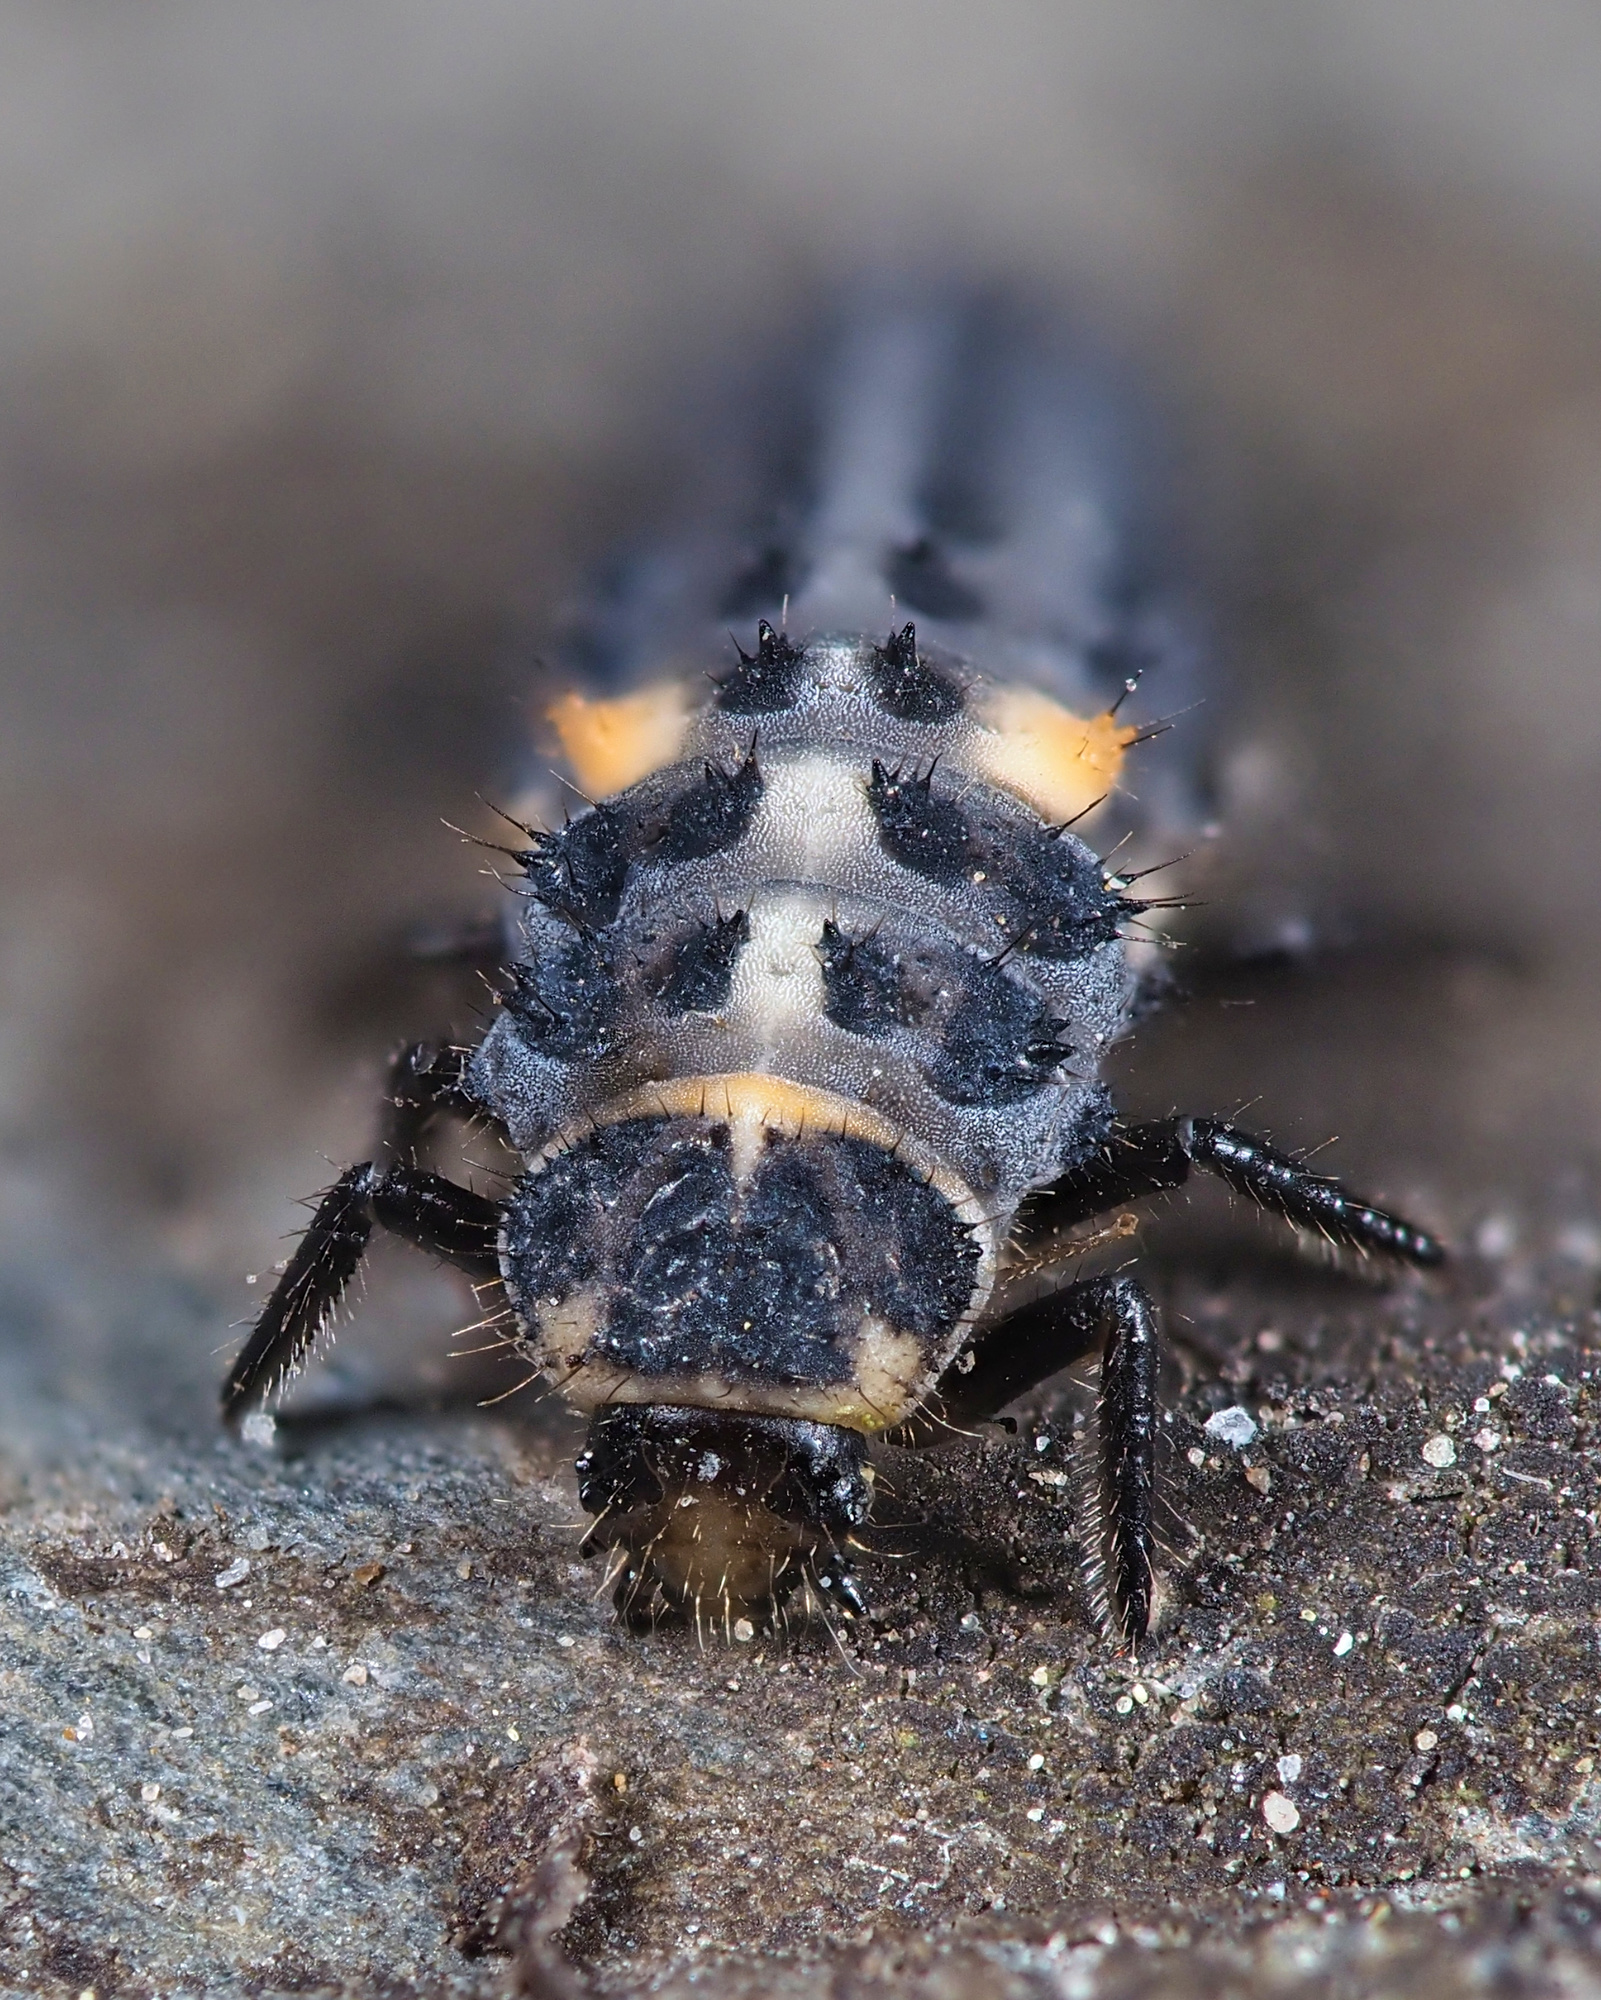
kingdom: Animalia
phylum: Arthropoda
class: Insecta
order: Coleoptera
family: Coccinellidae
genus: Hippodamia
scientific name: Hippodamia variegata
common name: Ladybird beetle
